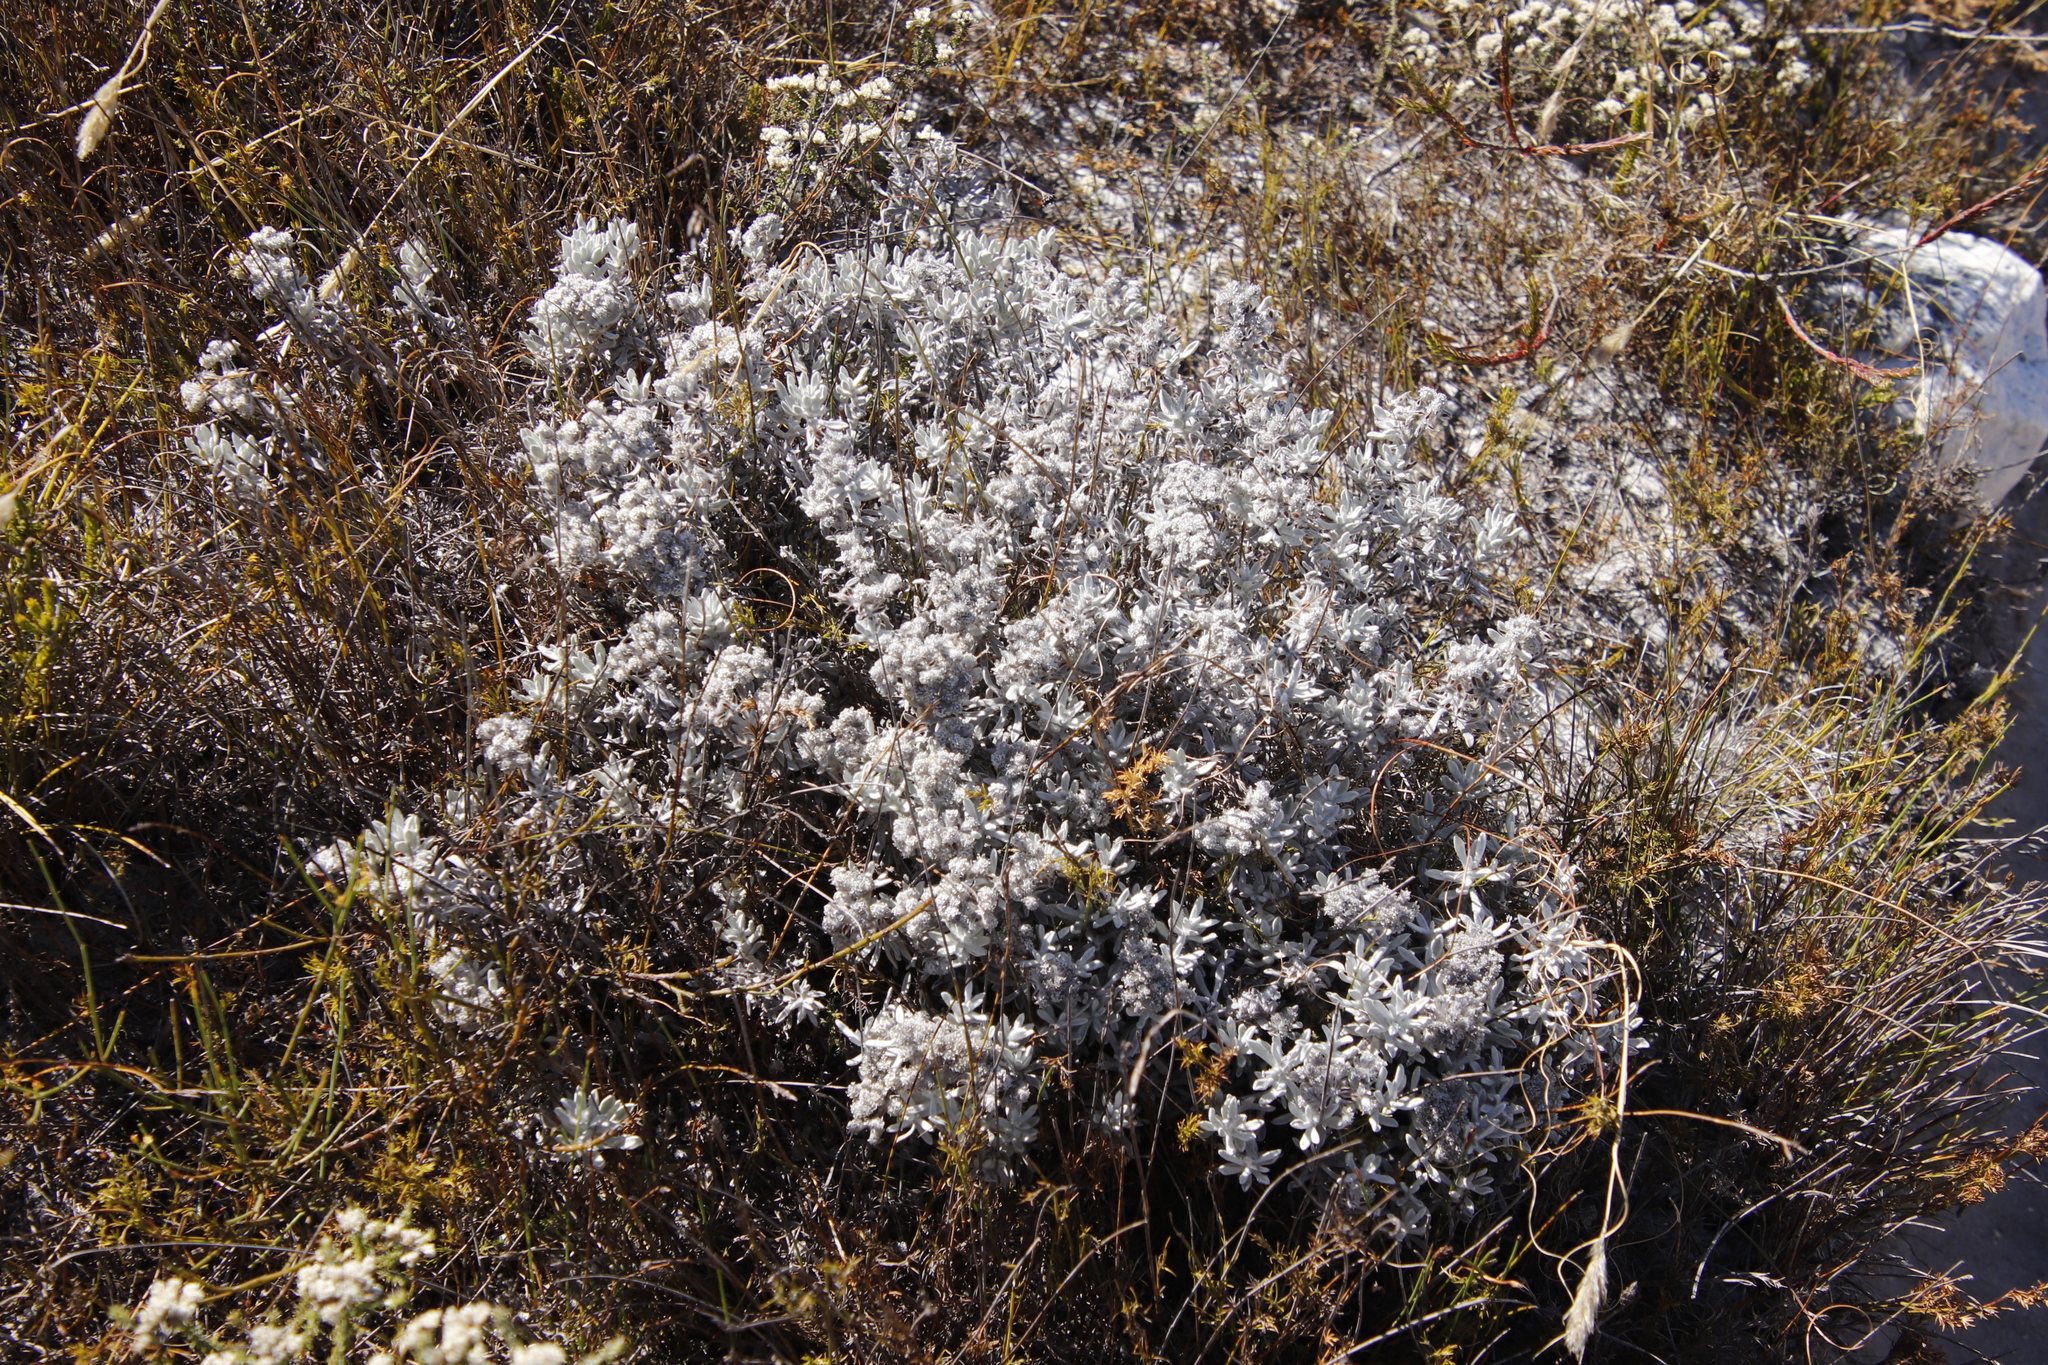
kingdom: Plantae
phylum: Tracheophyta
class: Magnoliopsida
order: Asterales
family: Asteraceae
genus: Petalacte
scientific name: Petalacte coronata
